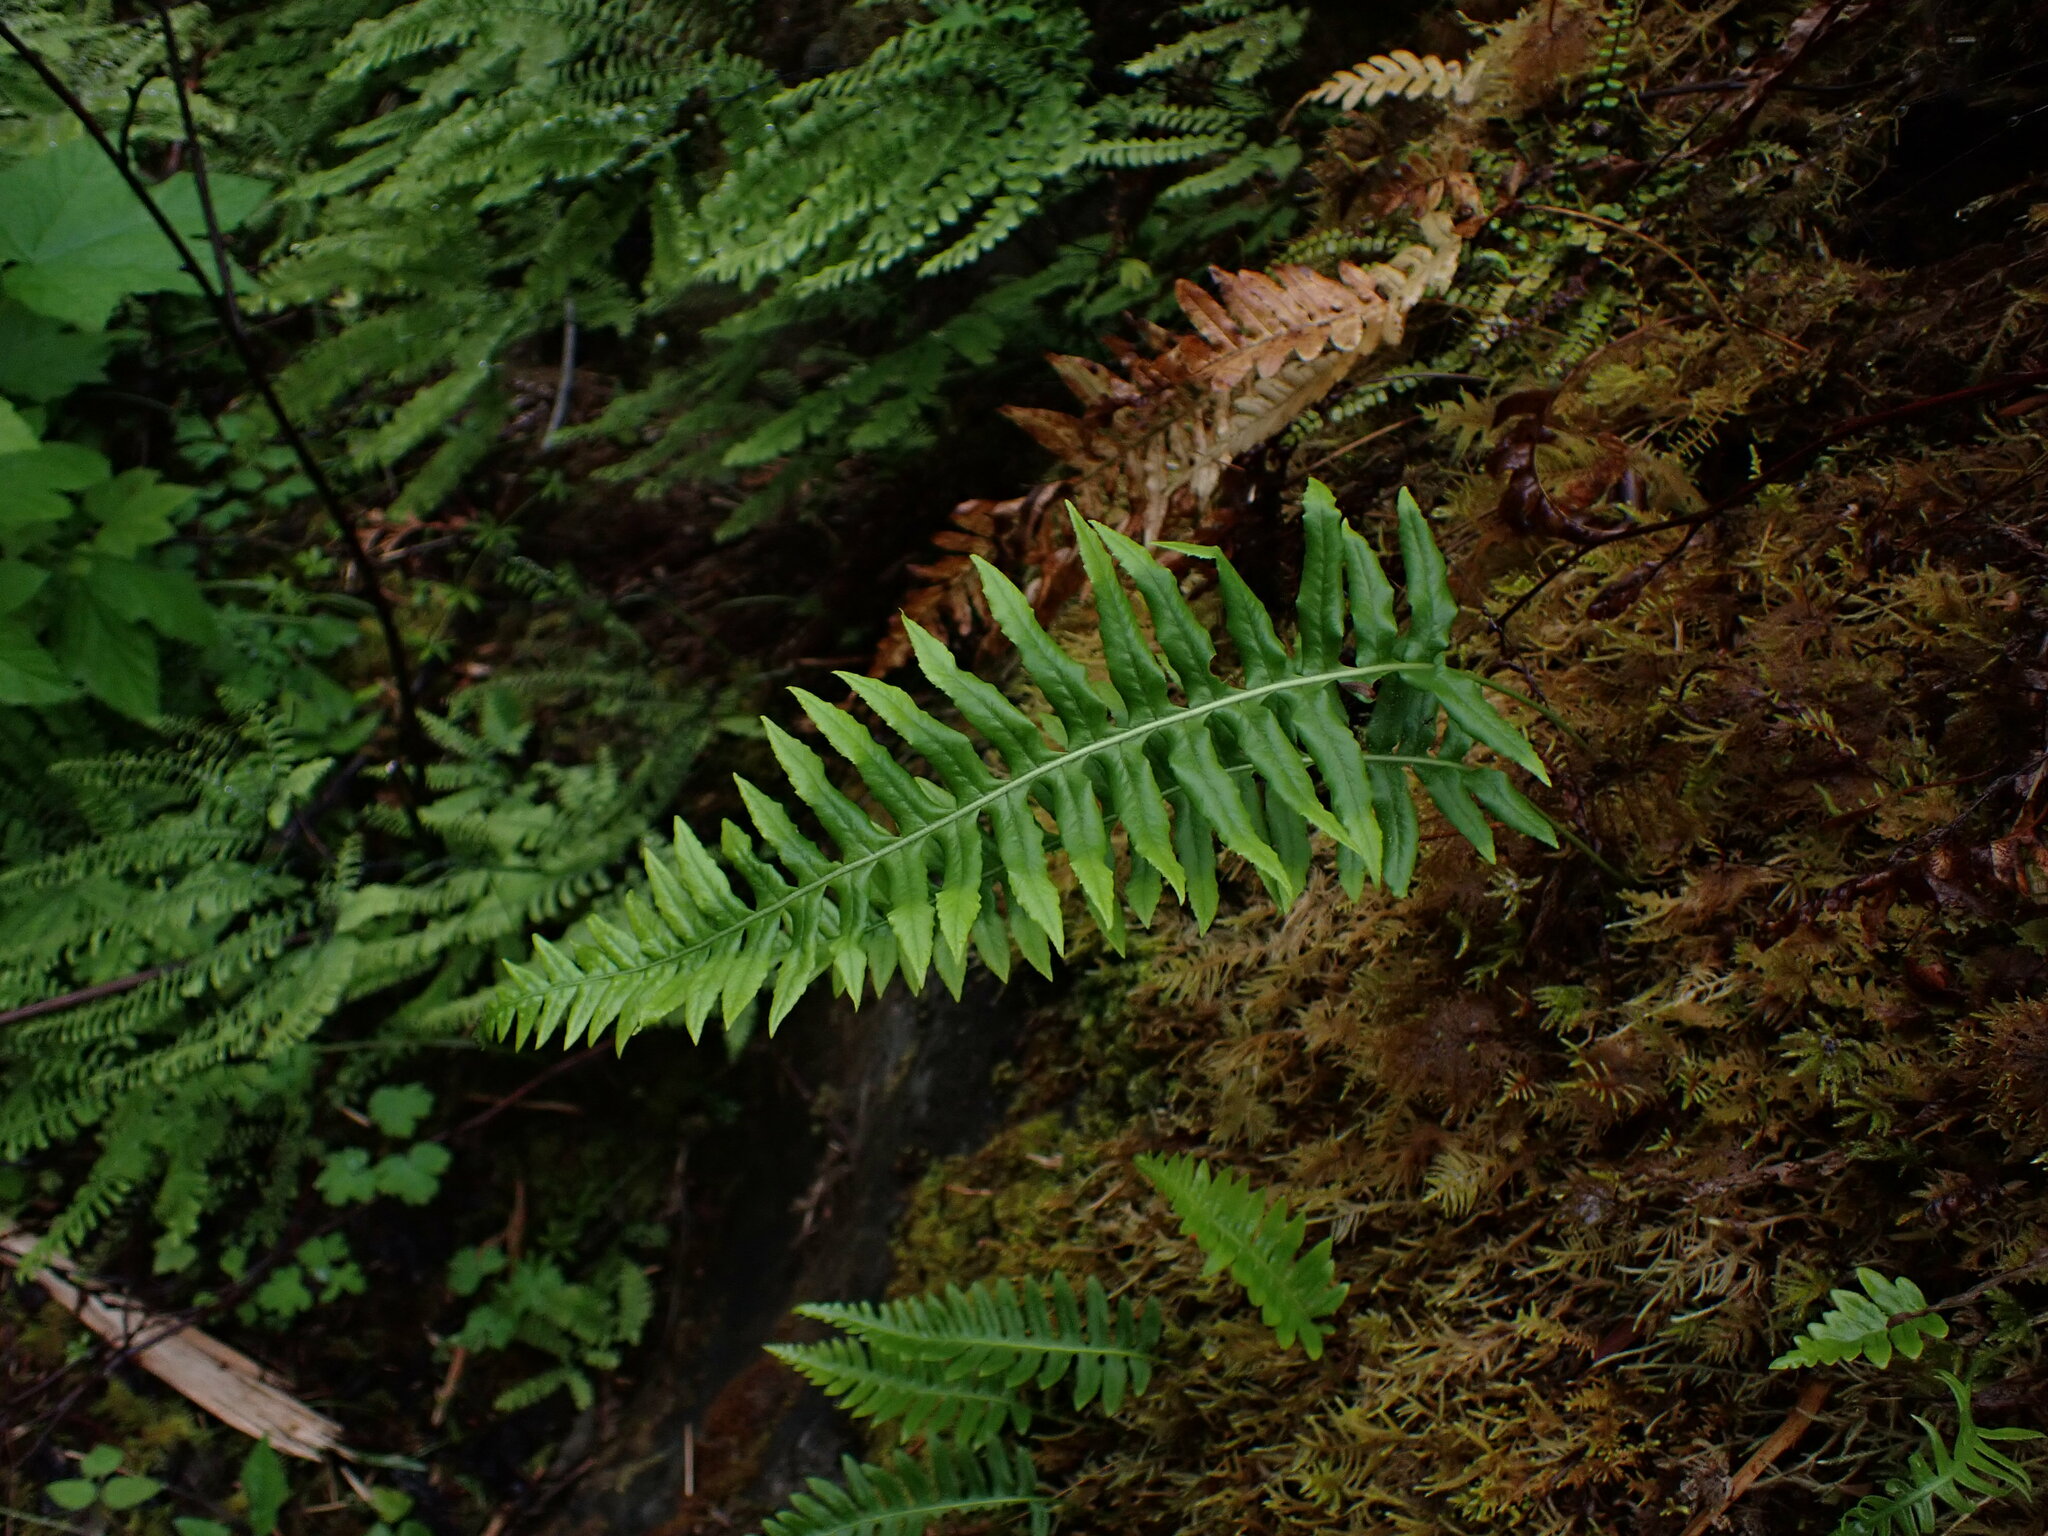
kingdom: Plantae
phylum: Tracheophyta
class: Polypodiopsida
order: Polypodiales
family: Polypodiaceae
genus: Polypodium
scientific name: Polypodium glycyrrhiza
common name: Licorice fern
